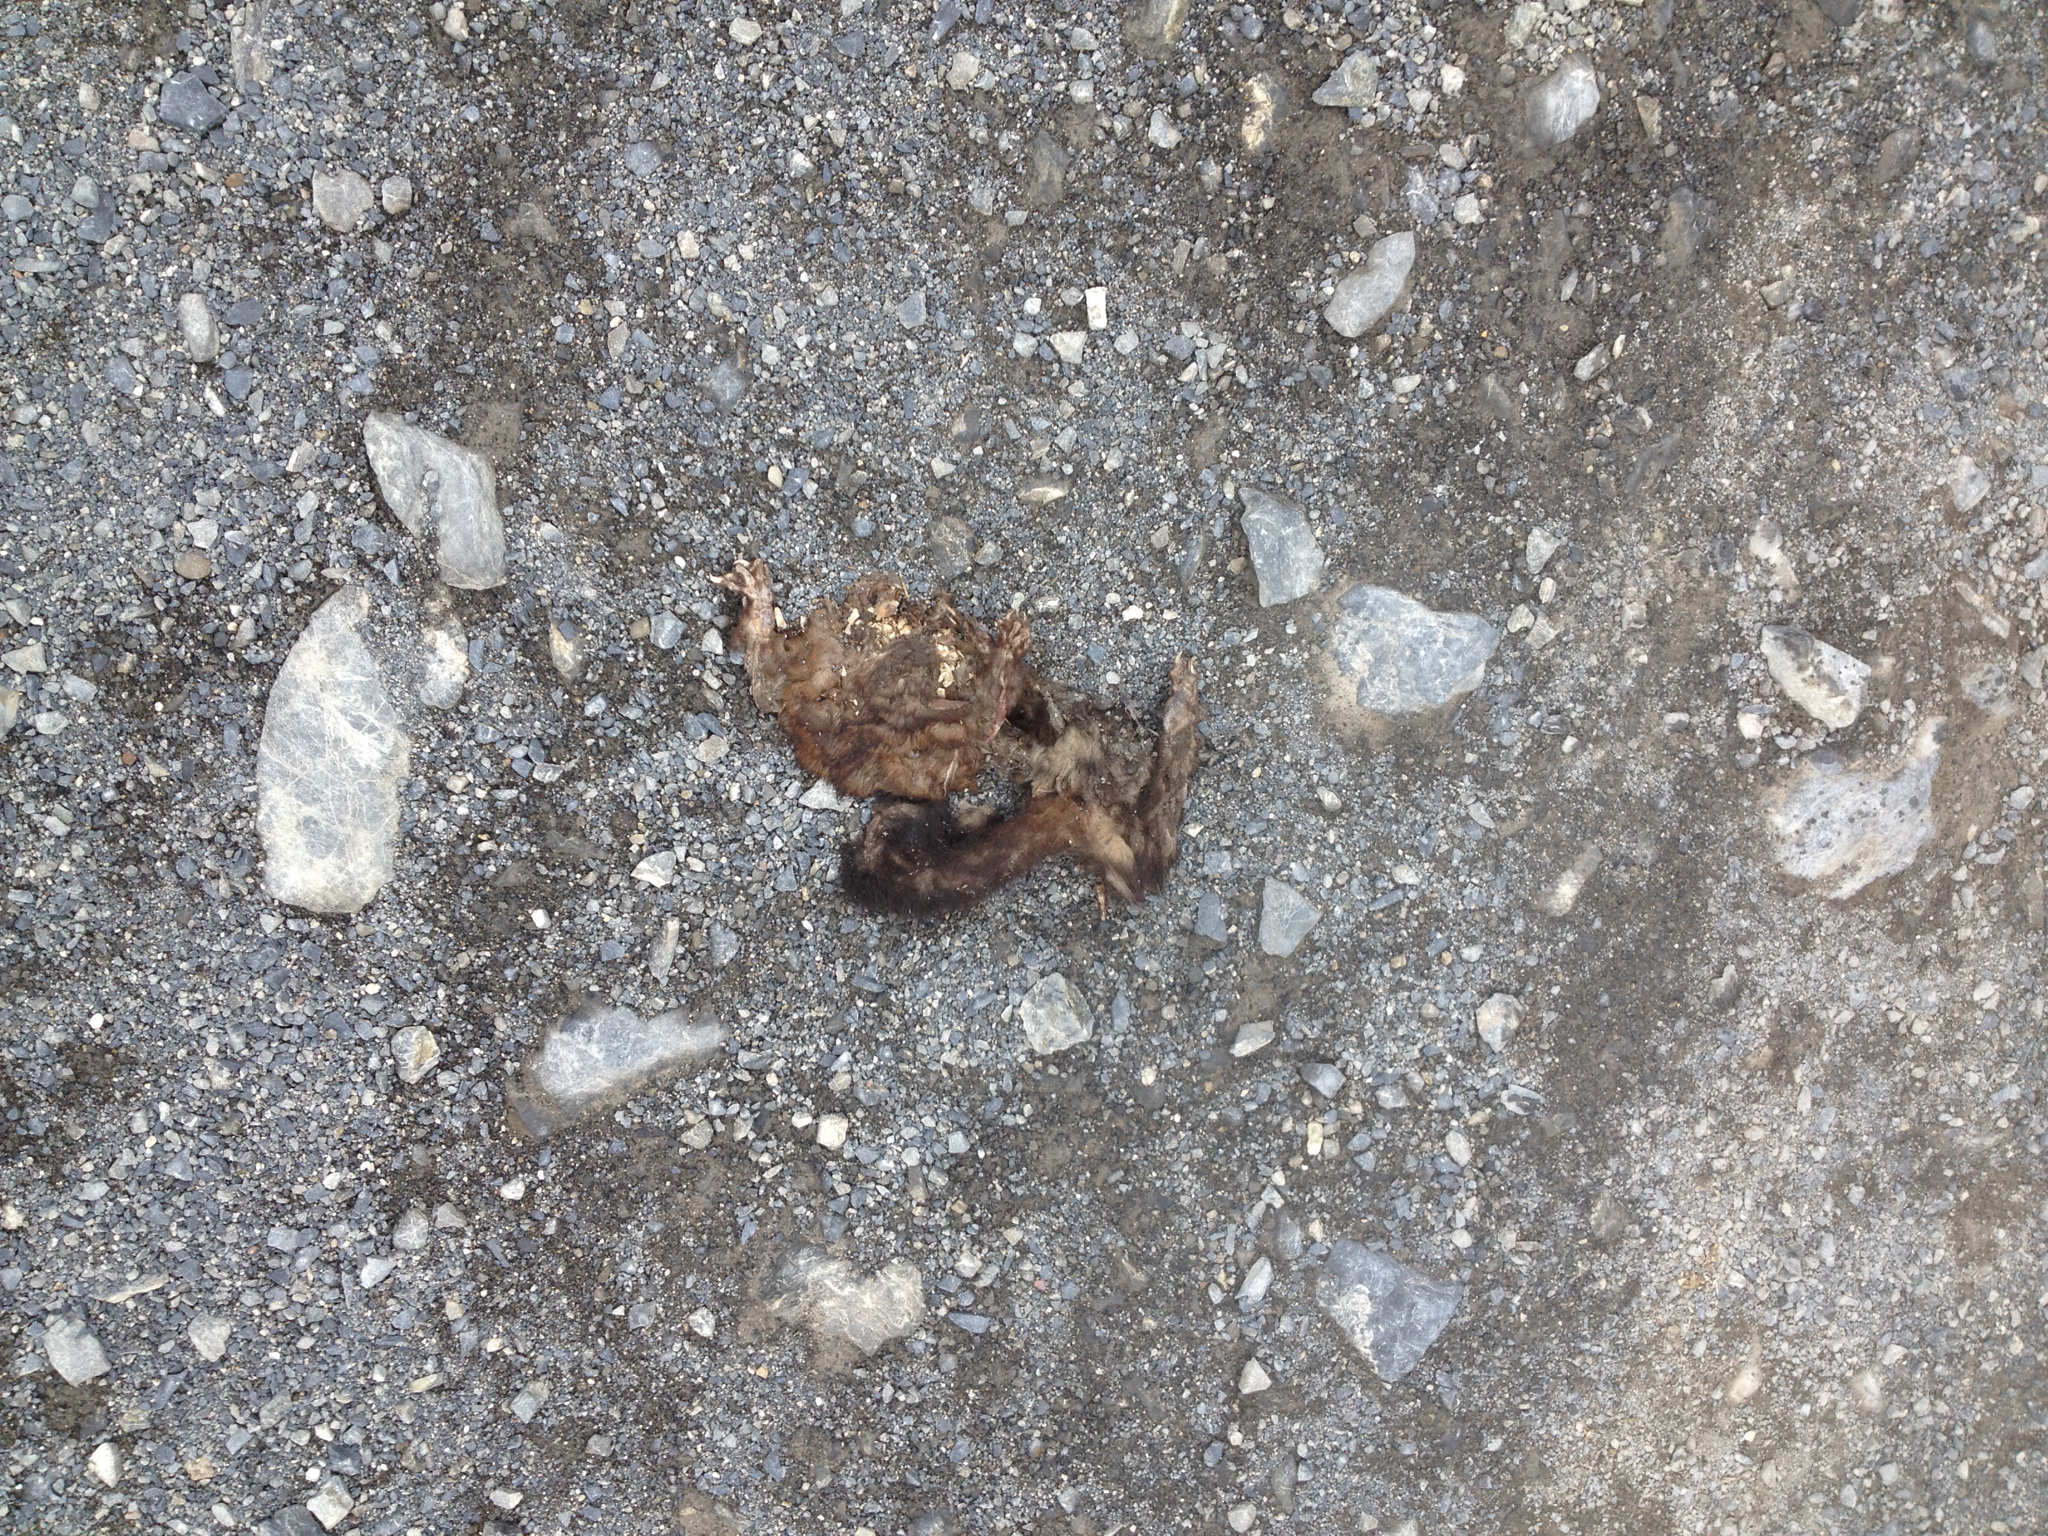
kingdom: Animalia
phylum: Chordata
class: Mammalia
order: Diprotodontia
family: Phalangeridae
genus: Trichosurus
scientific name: Trichosurus vulpecula
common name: Common brushtail
